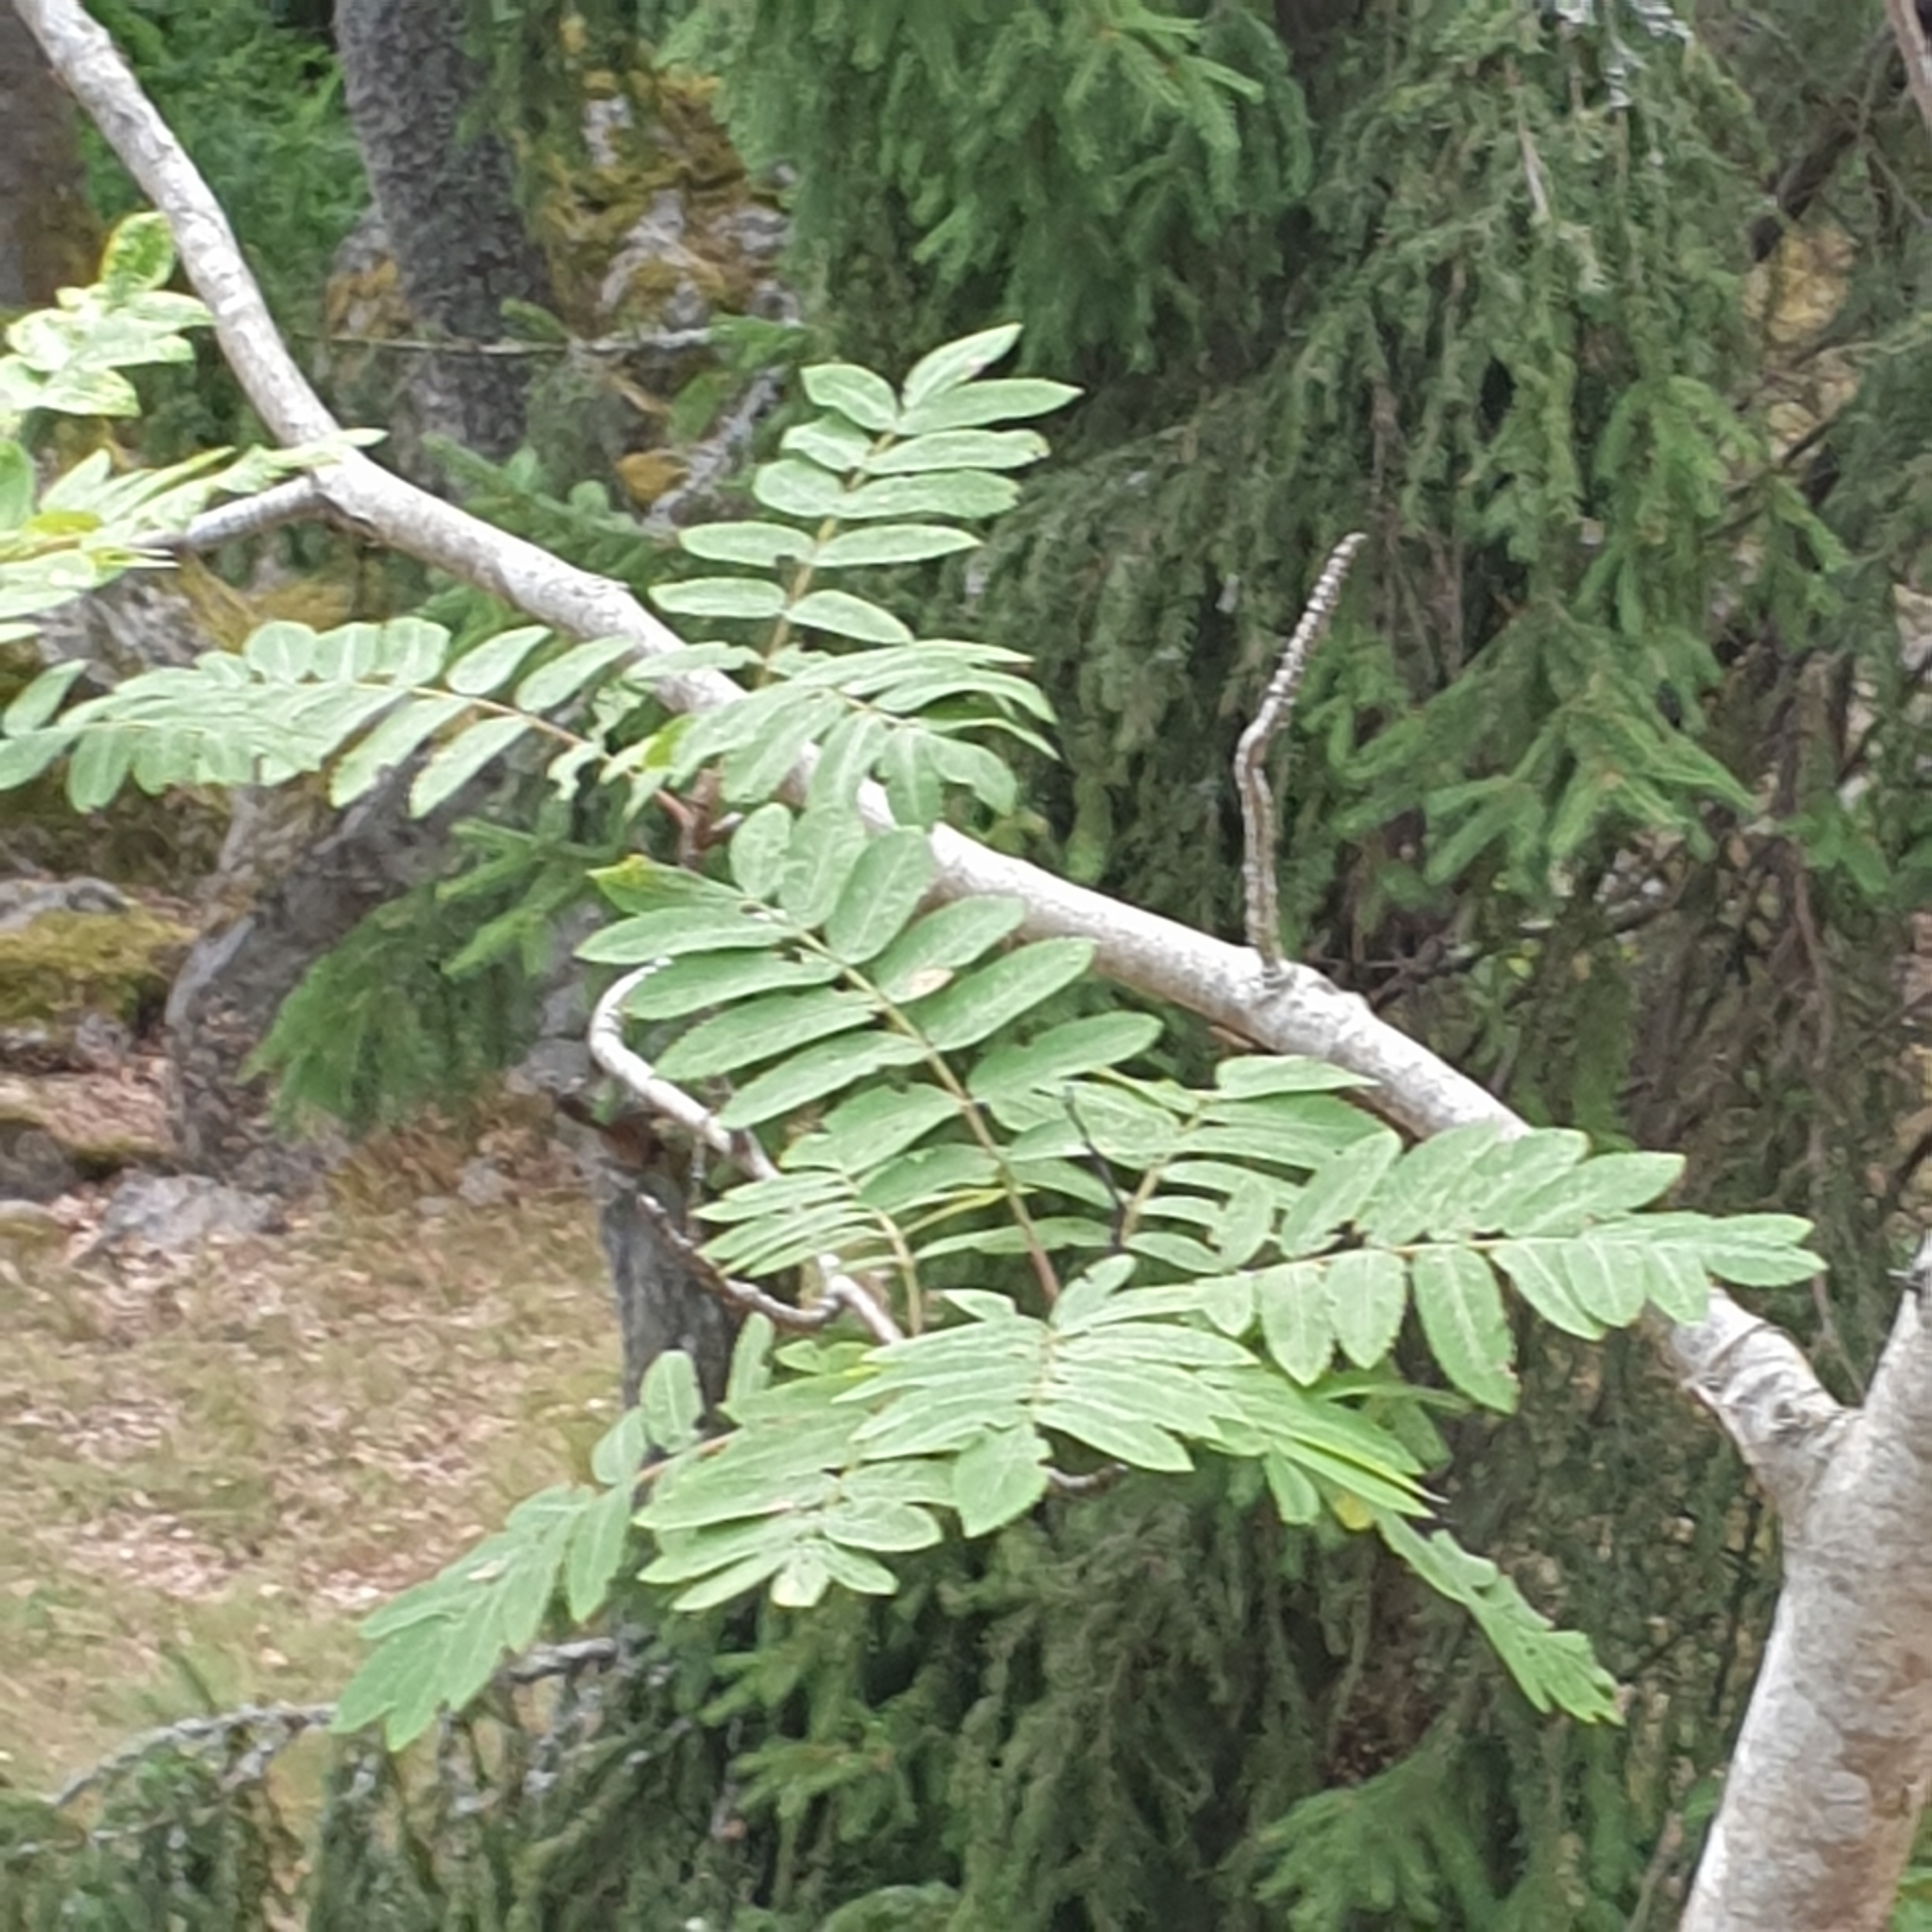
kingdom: Plantae
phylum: Tracheophyta
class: Magnoliopsida
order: Rosales
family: Rosaceae
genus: Sorbus
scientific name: Sorbus aucuparia
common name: Rowan
